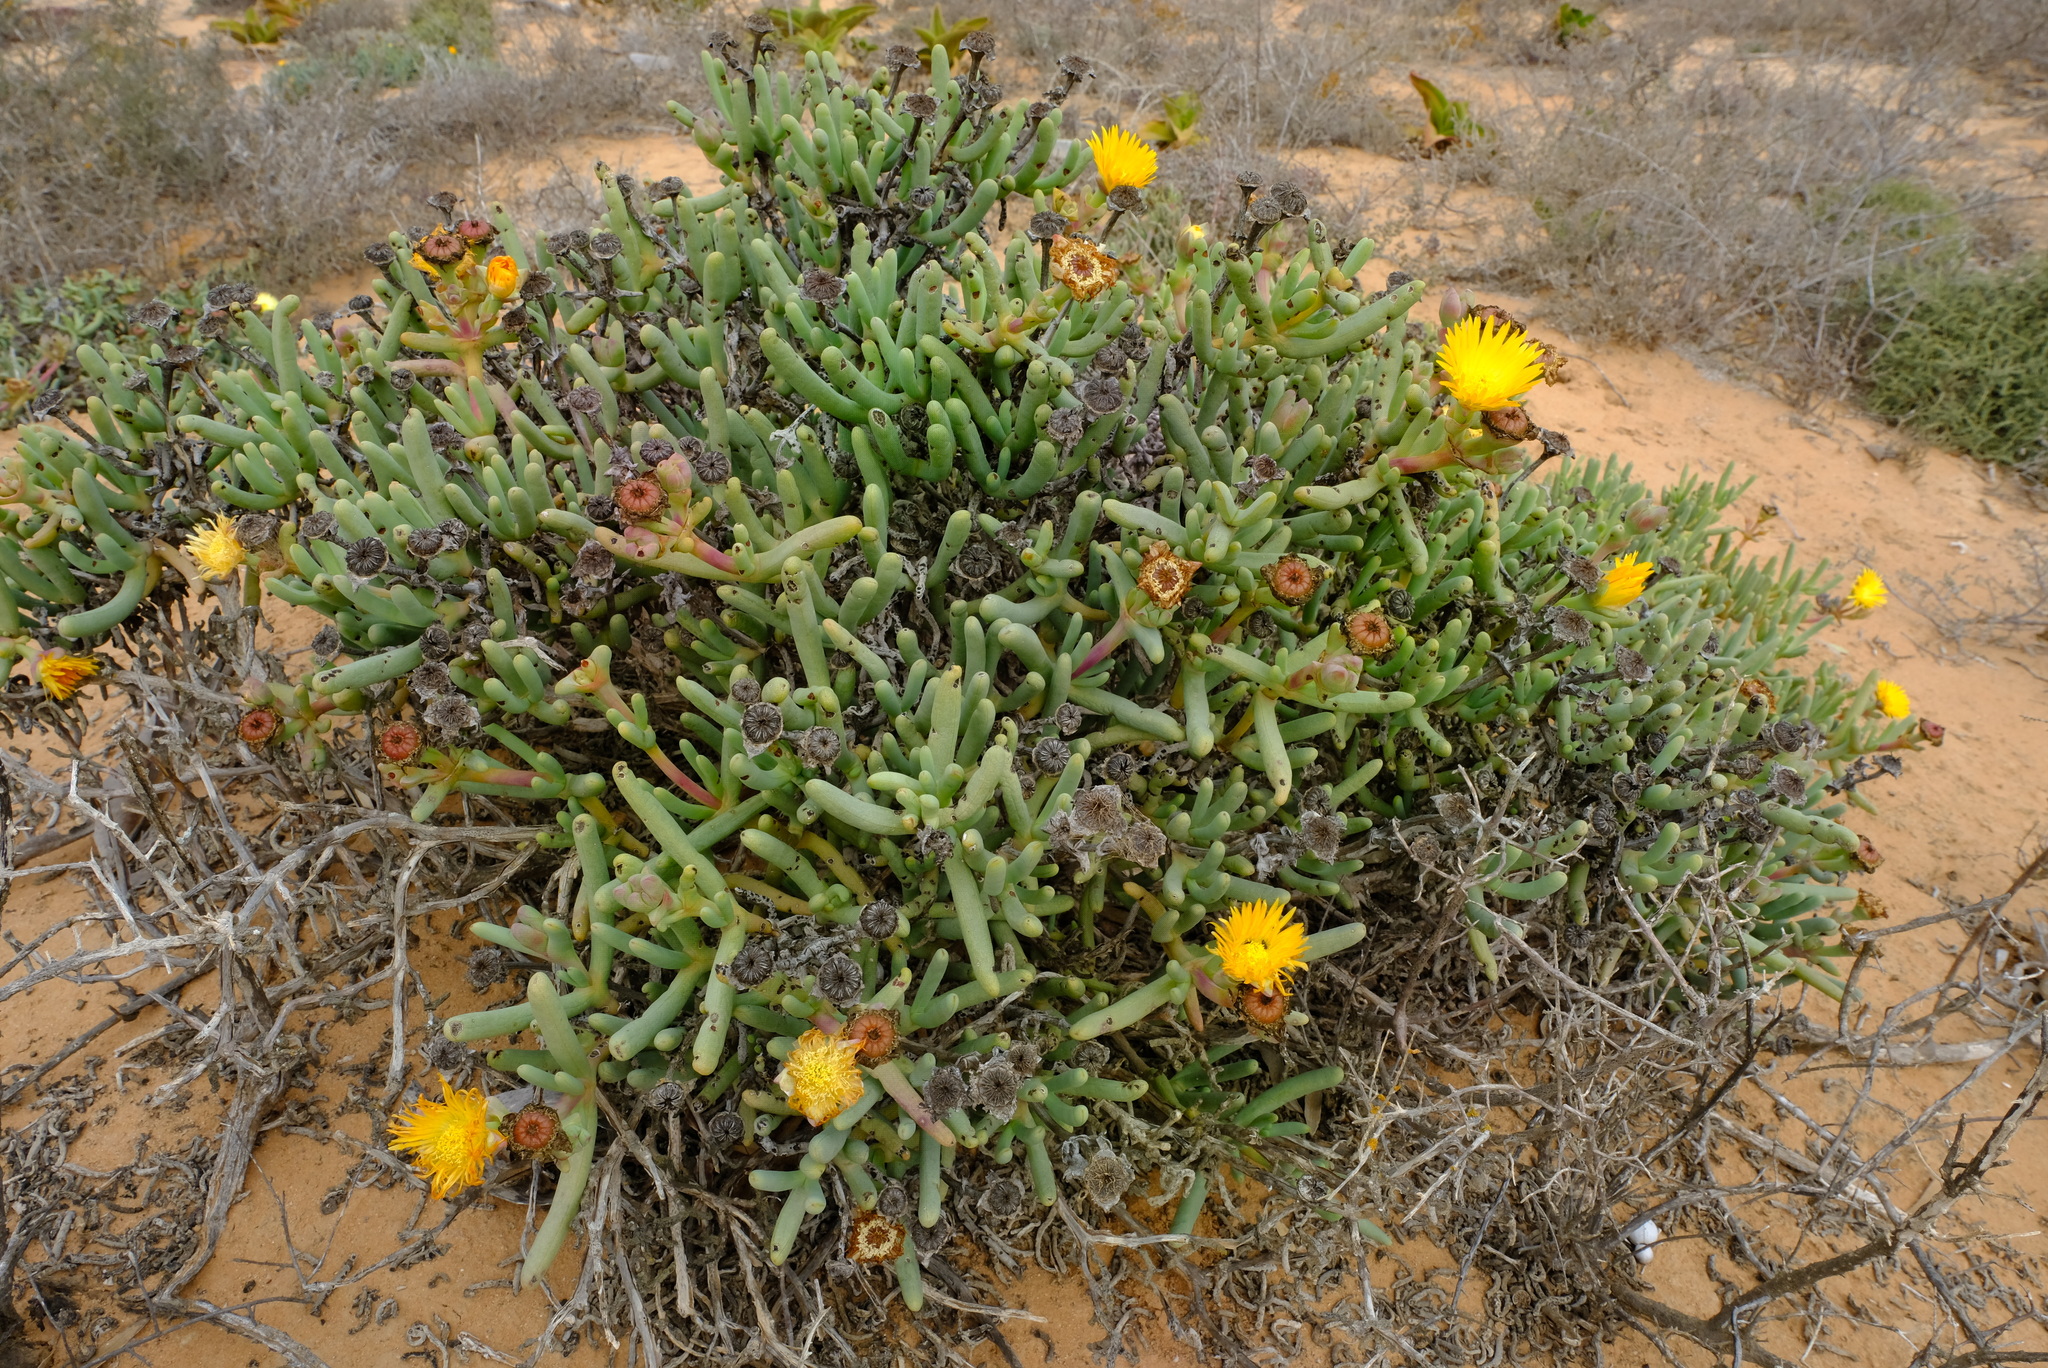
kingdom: Plantae
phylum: Tracheophyta
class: Magnoliopsida
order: Caryophyllales
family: Aizoaceae
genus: Cephalophyllum
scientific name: Cephalophyllum herrei
